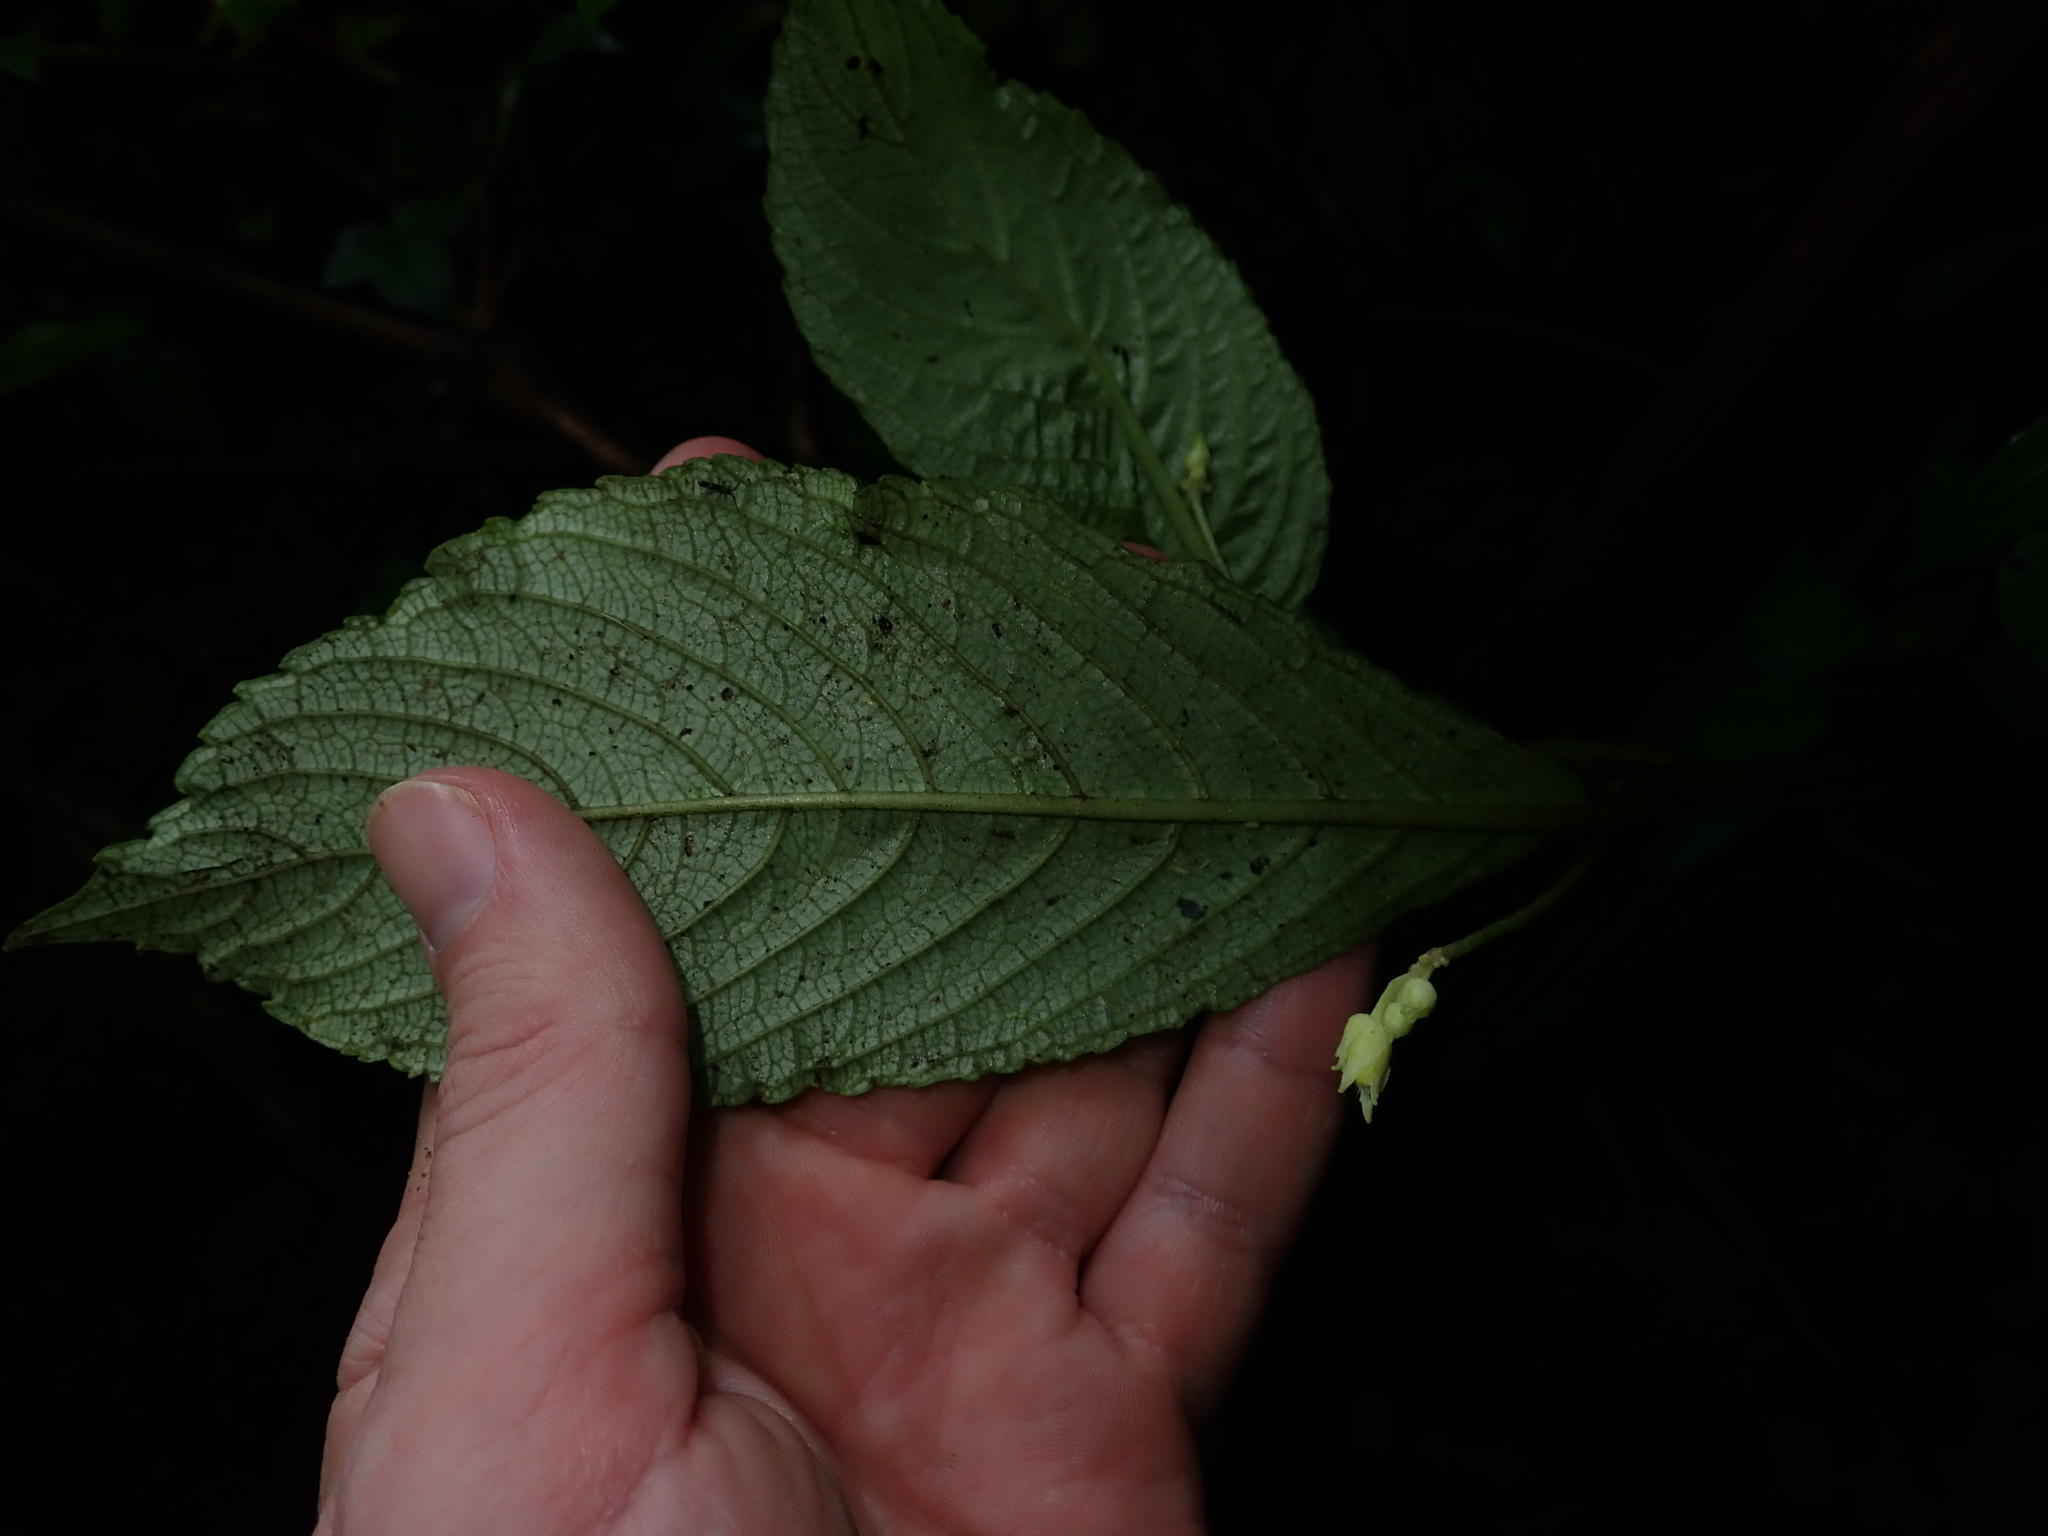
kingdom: Plantae
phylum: Tracheophyta
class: Magnoliopsida
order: Lamiales
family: Gesneriaceae
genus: Gasteranthus
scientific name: Gasteranthus wendlandianus
